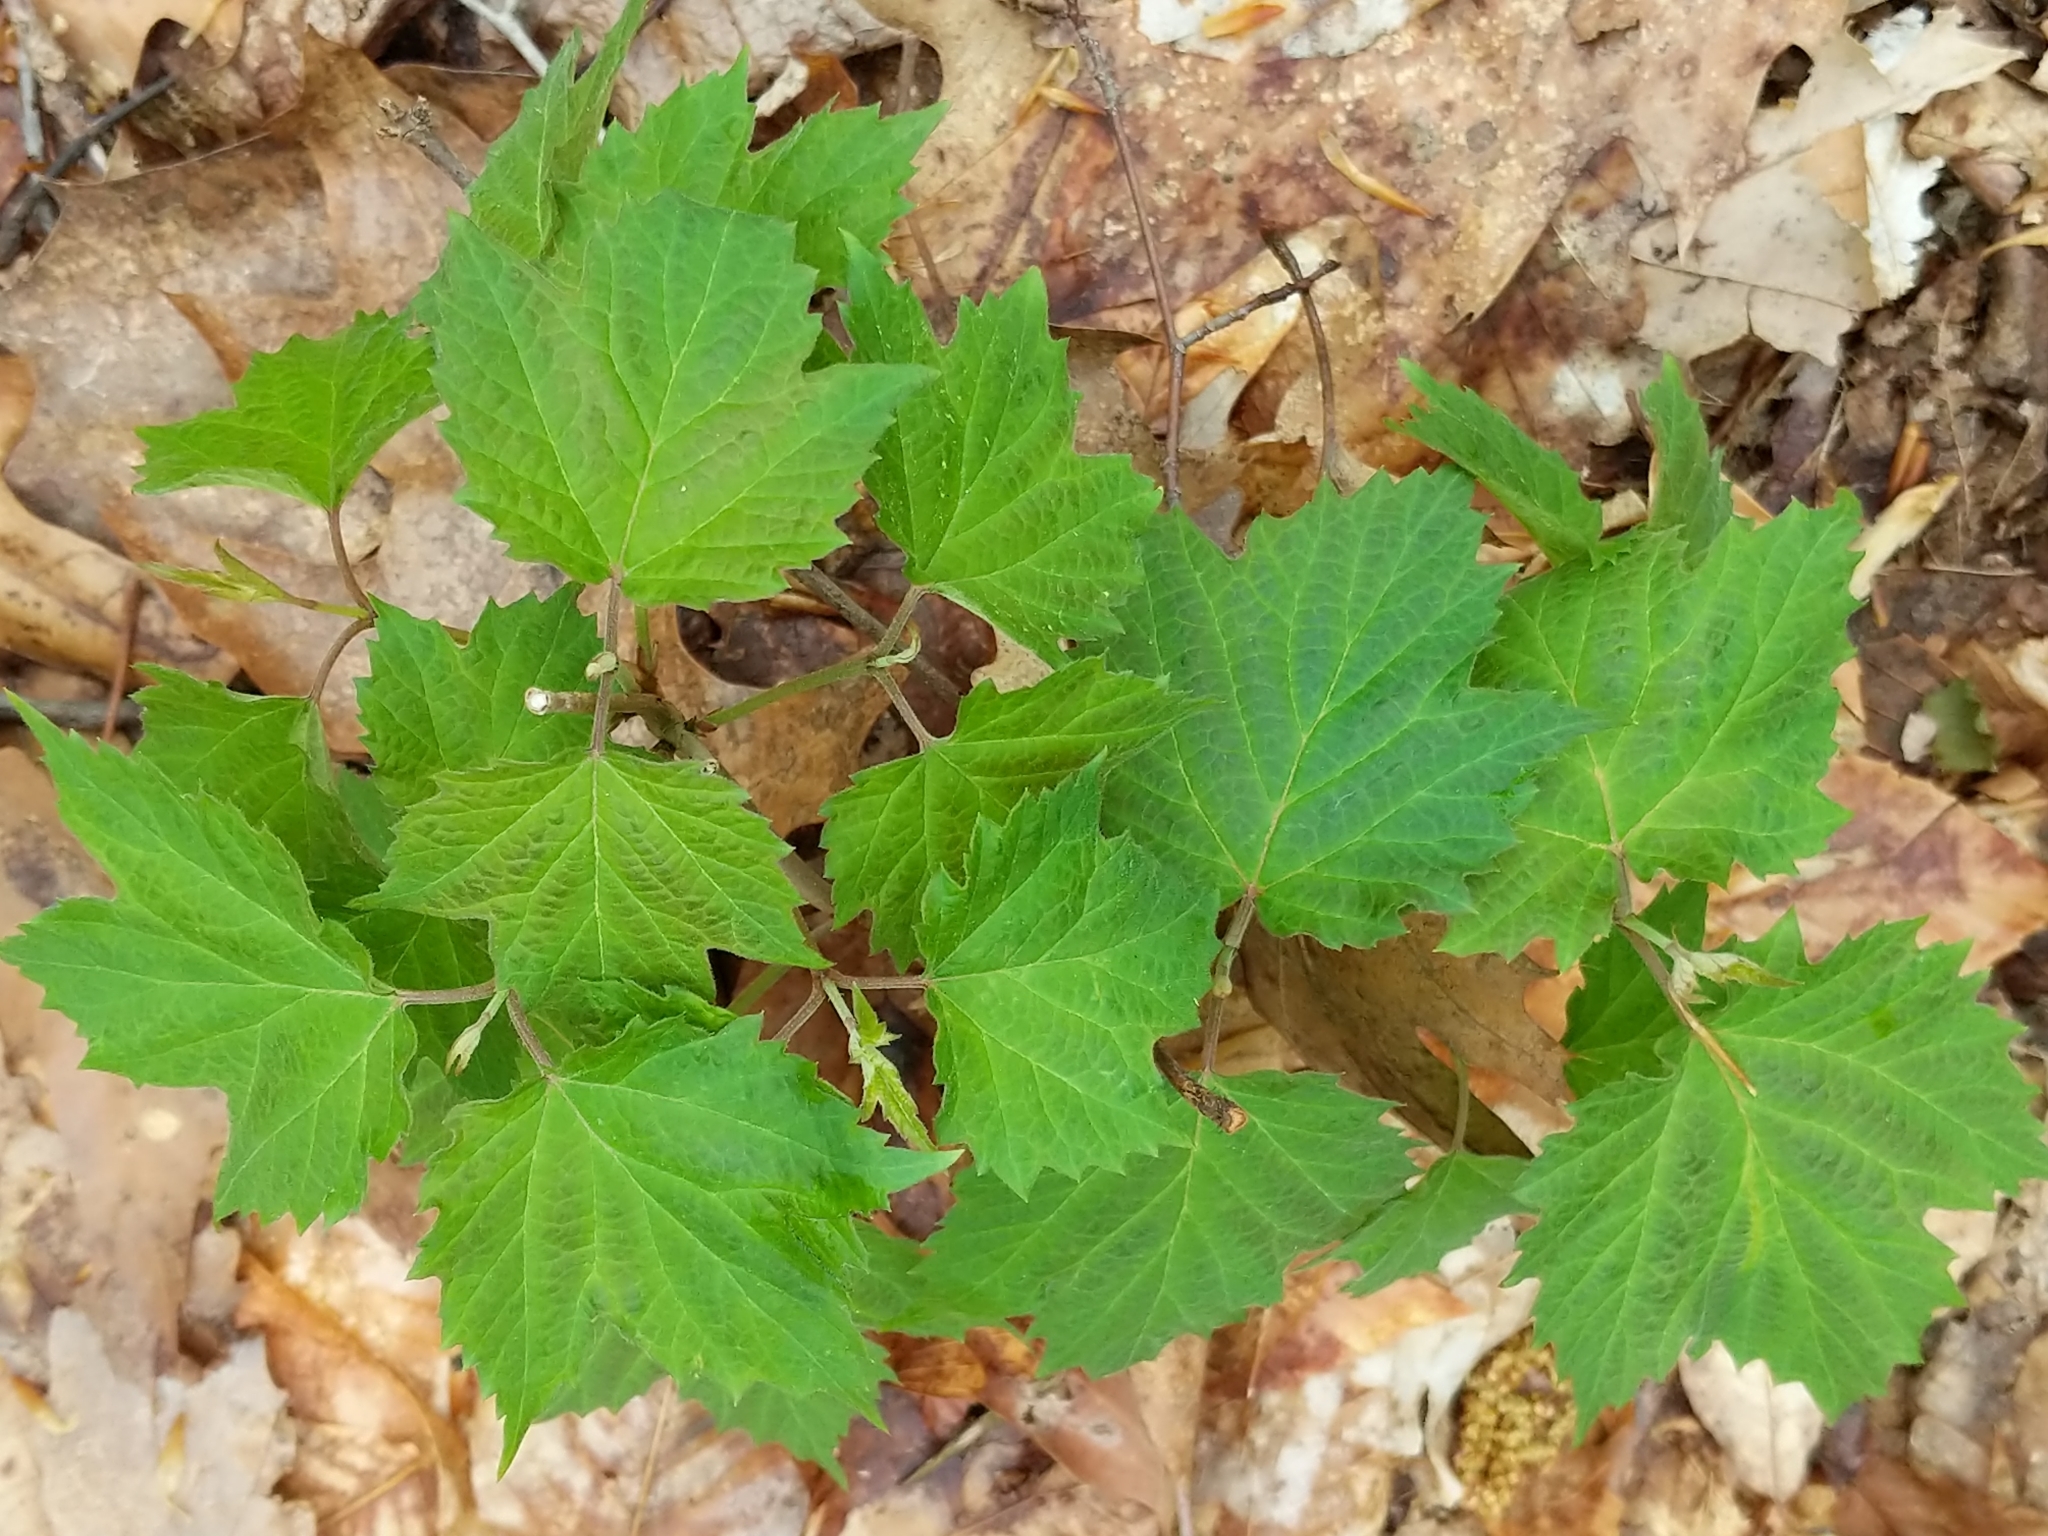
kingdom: Plantae
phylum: Tracheophyta
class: Magnoliopsida
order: Dipsacales
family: Viburnaceae
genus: Viburnum
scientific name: Viburnum acerifolium
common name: Dockmackie
